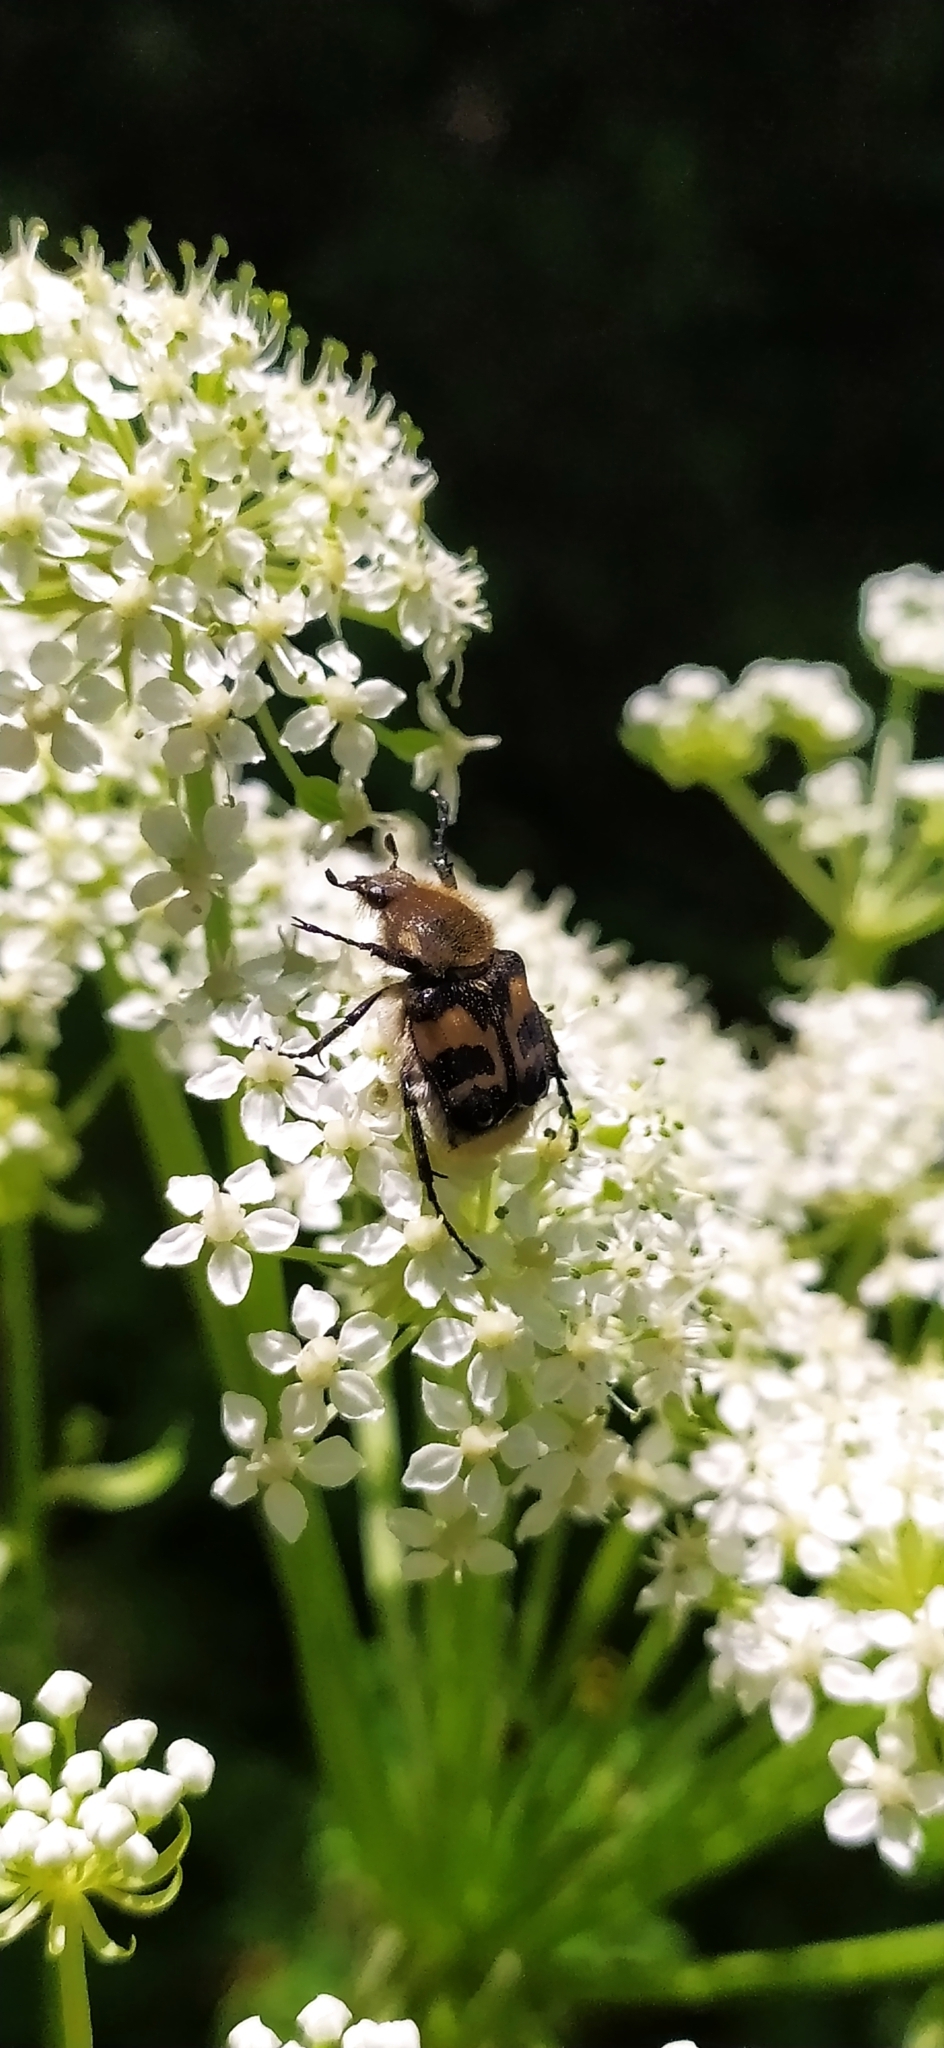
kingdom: Animalia
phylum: Arthropoda
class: Insecta
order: Coleoptera
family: Scarabaeidae
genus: Trichius
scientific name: Trichius fasciatus
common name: Bee beetle
